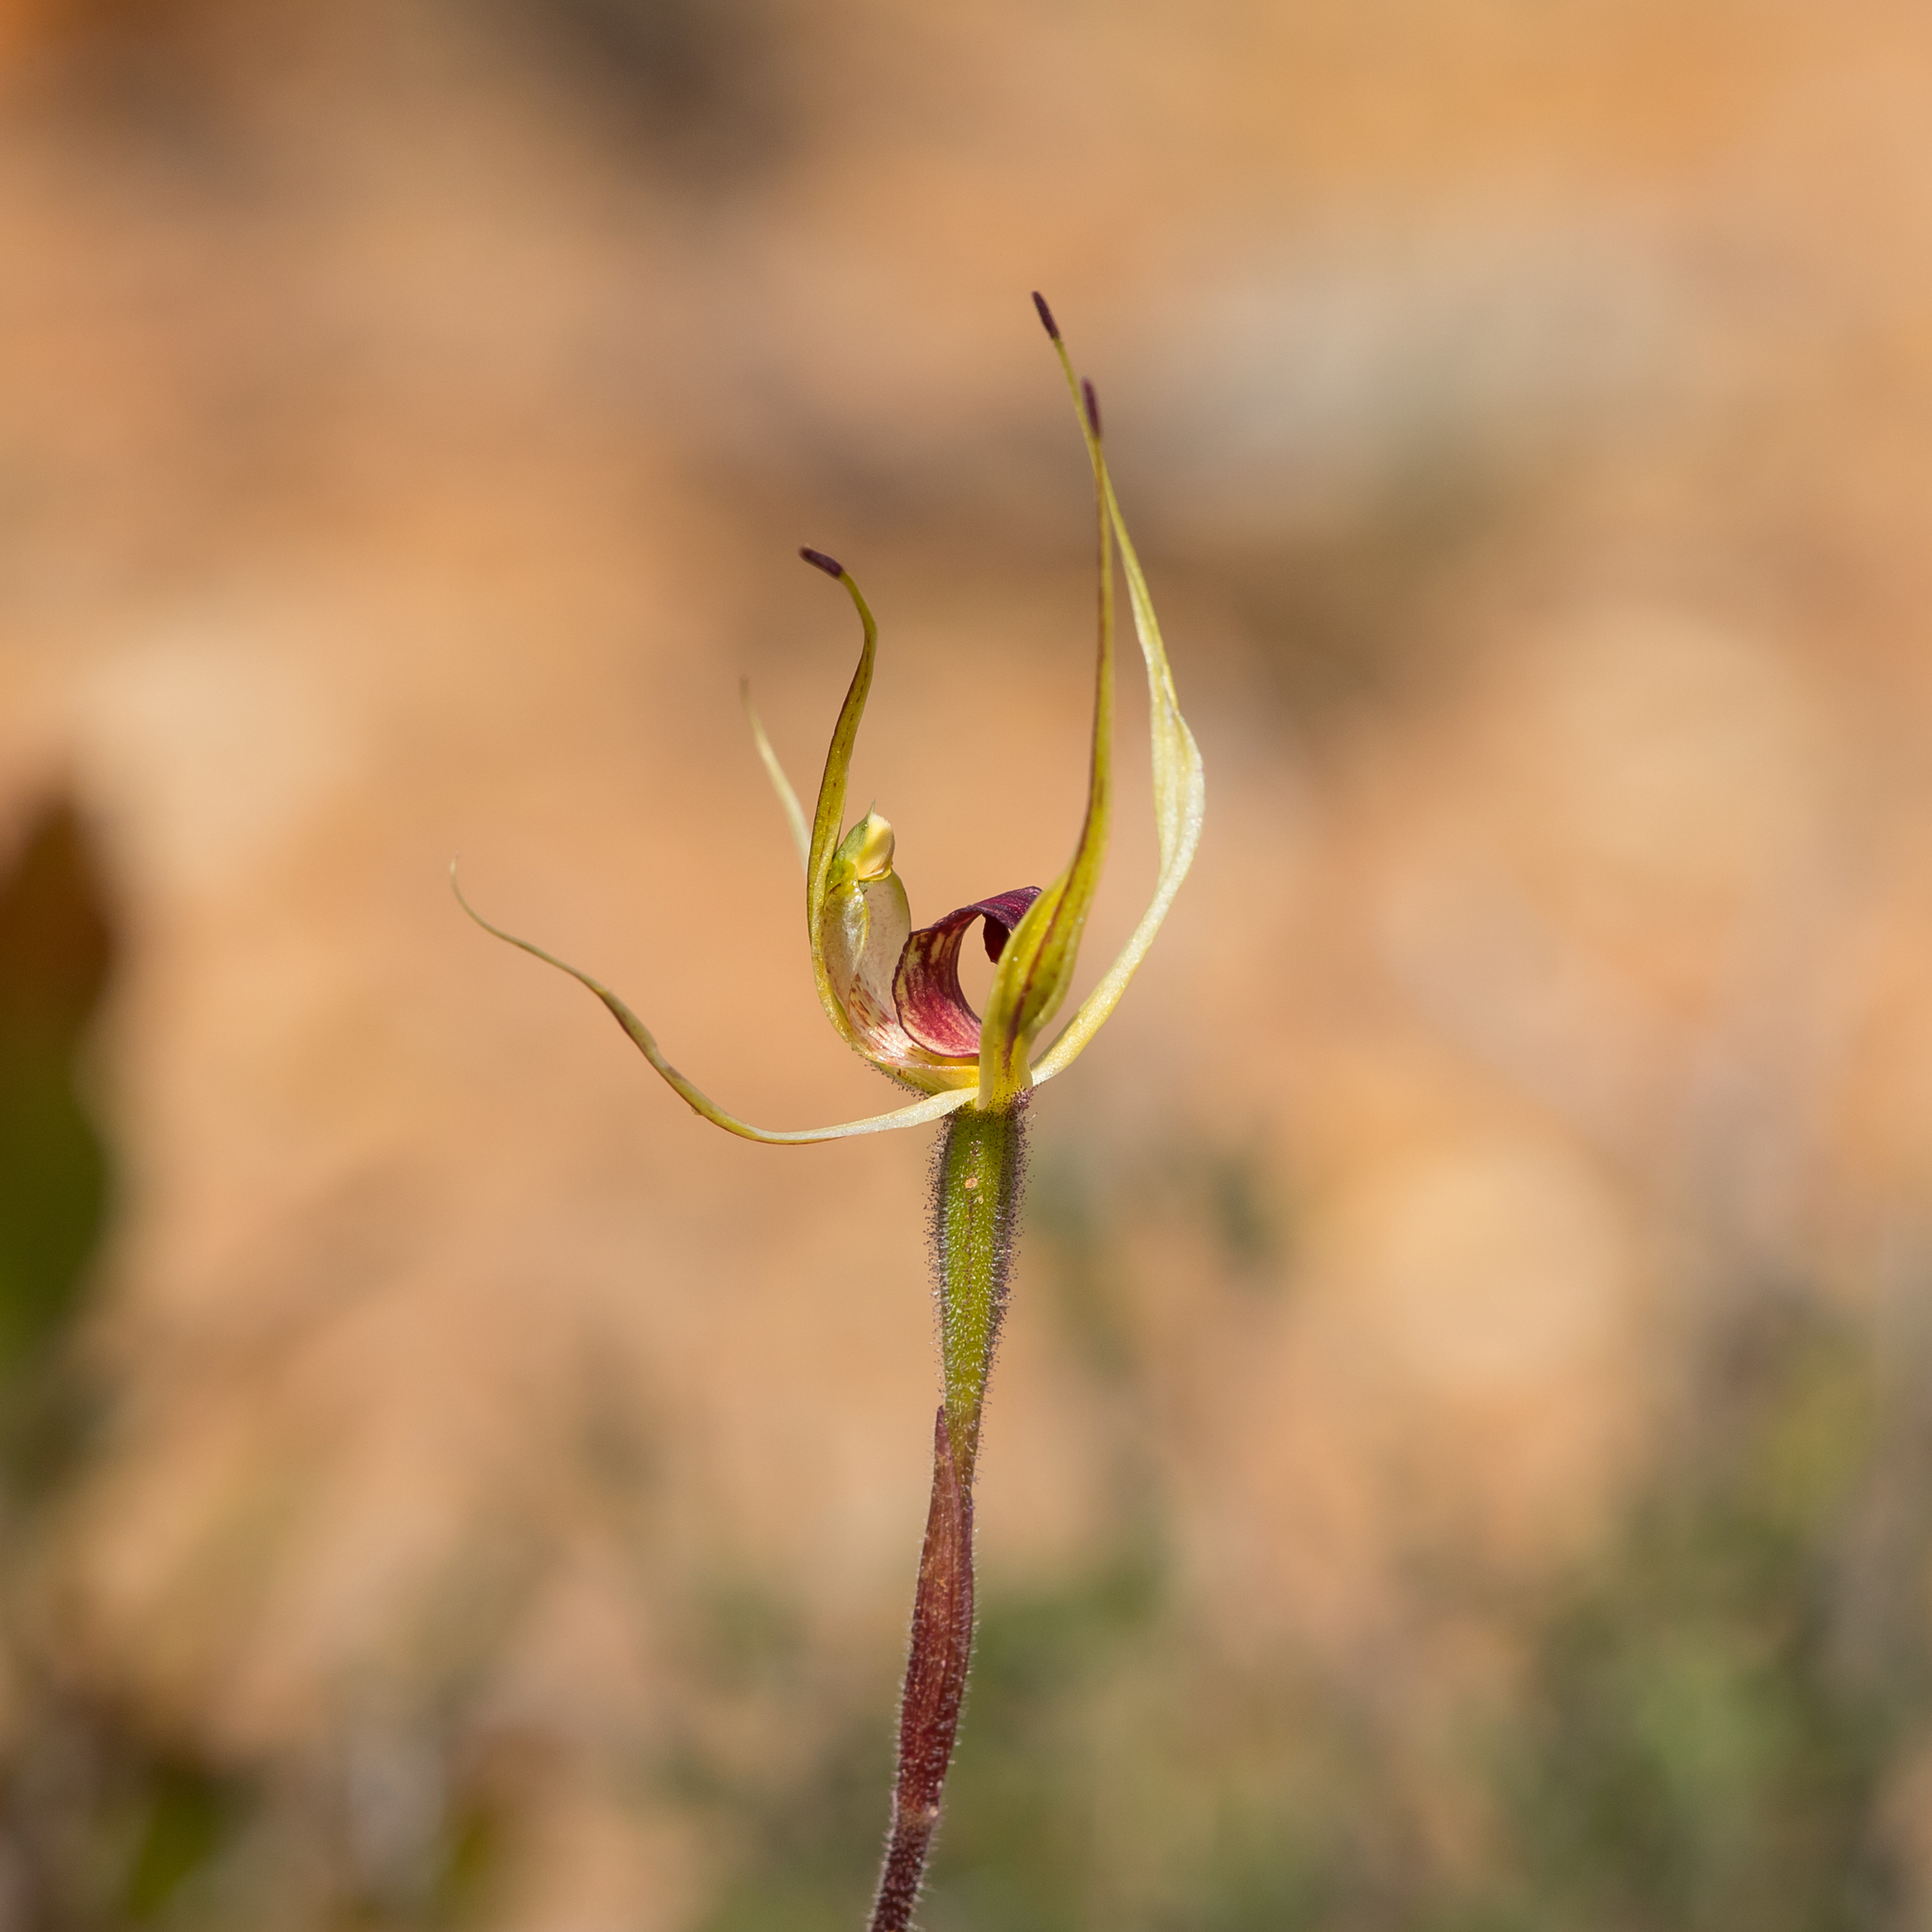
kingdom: Plantae
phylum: Tracheophyta
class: Liliopsida
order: Asparagales
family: Orchidaceae
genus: Caladenia
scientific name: Caladenia leptochila
